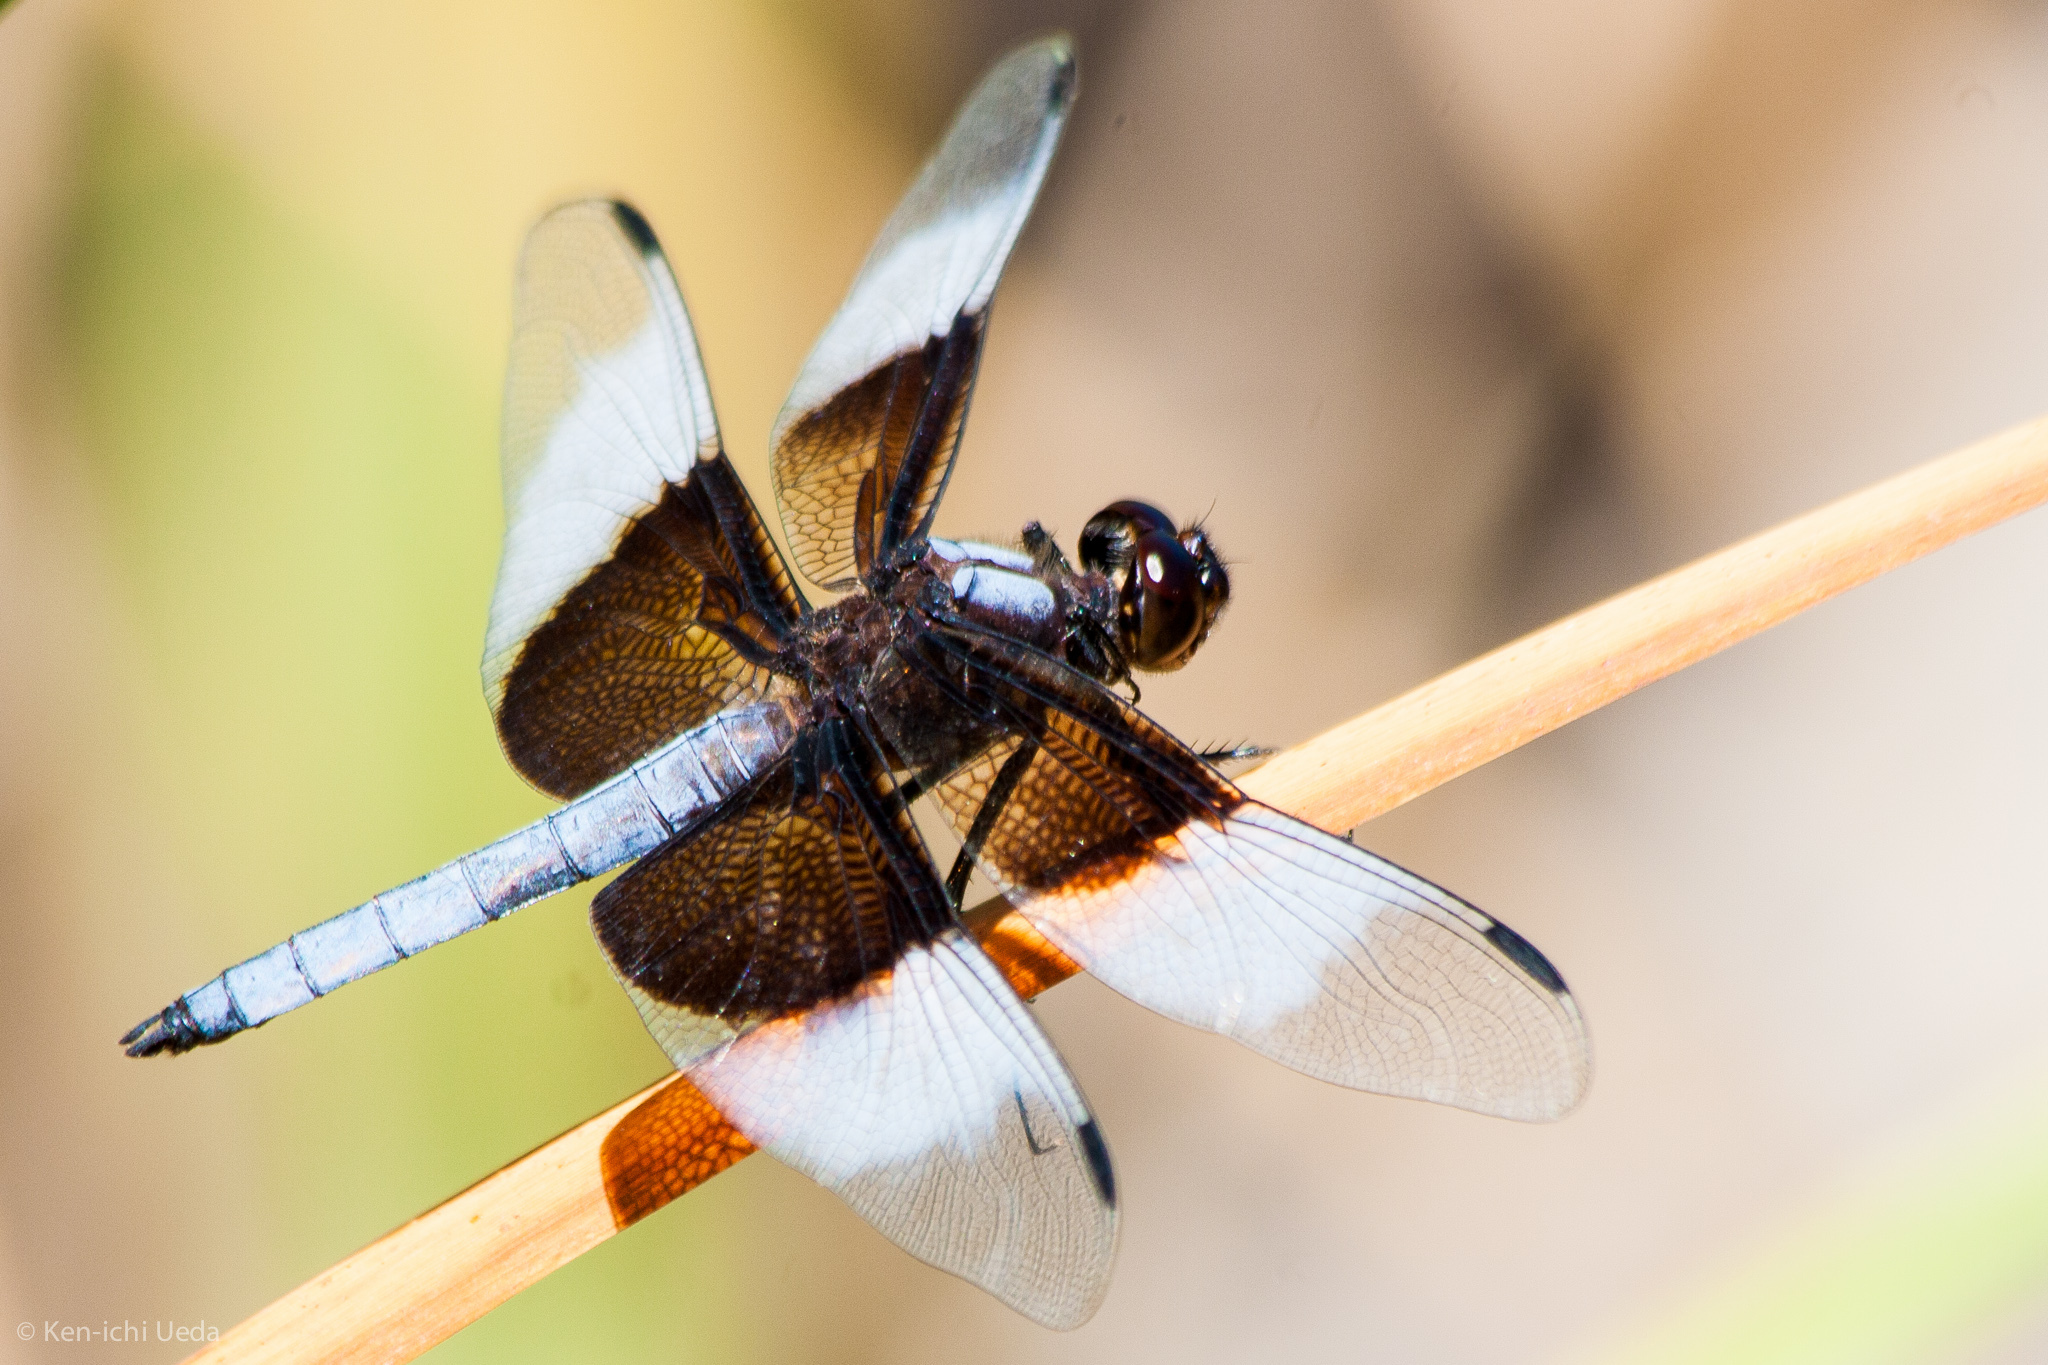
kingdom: Animalia
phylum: Arthropoda
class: Insecta
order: Odonata
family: Libellulidae
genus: Libellula
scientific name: Libellula luctuosa
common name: Widow skimmer
